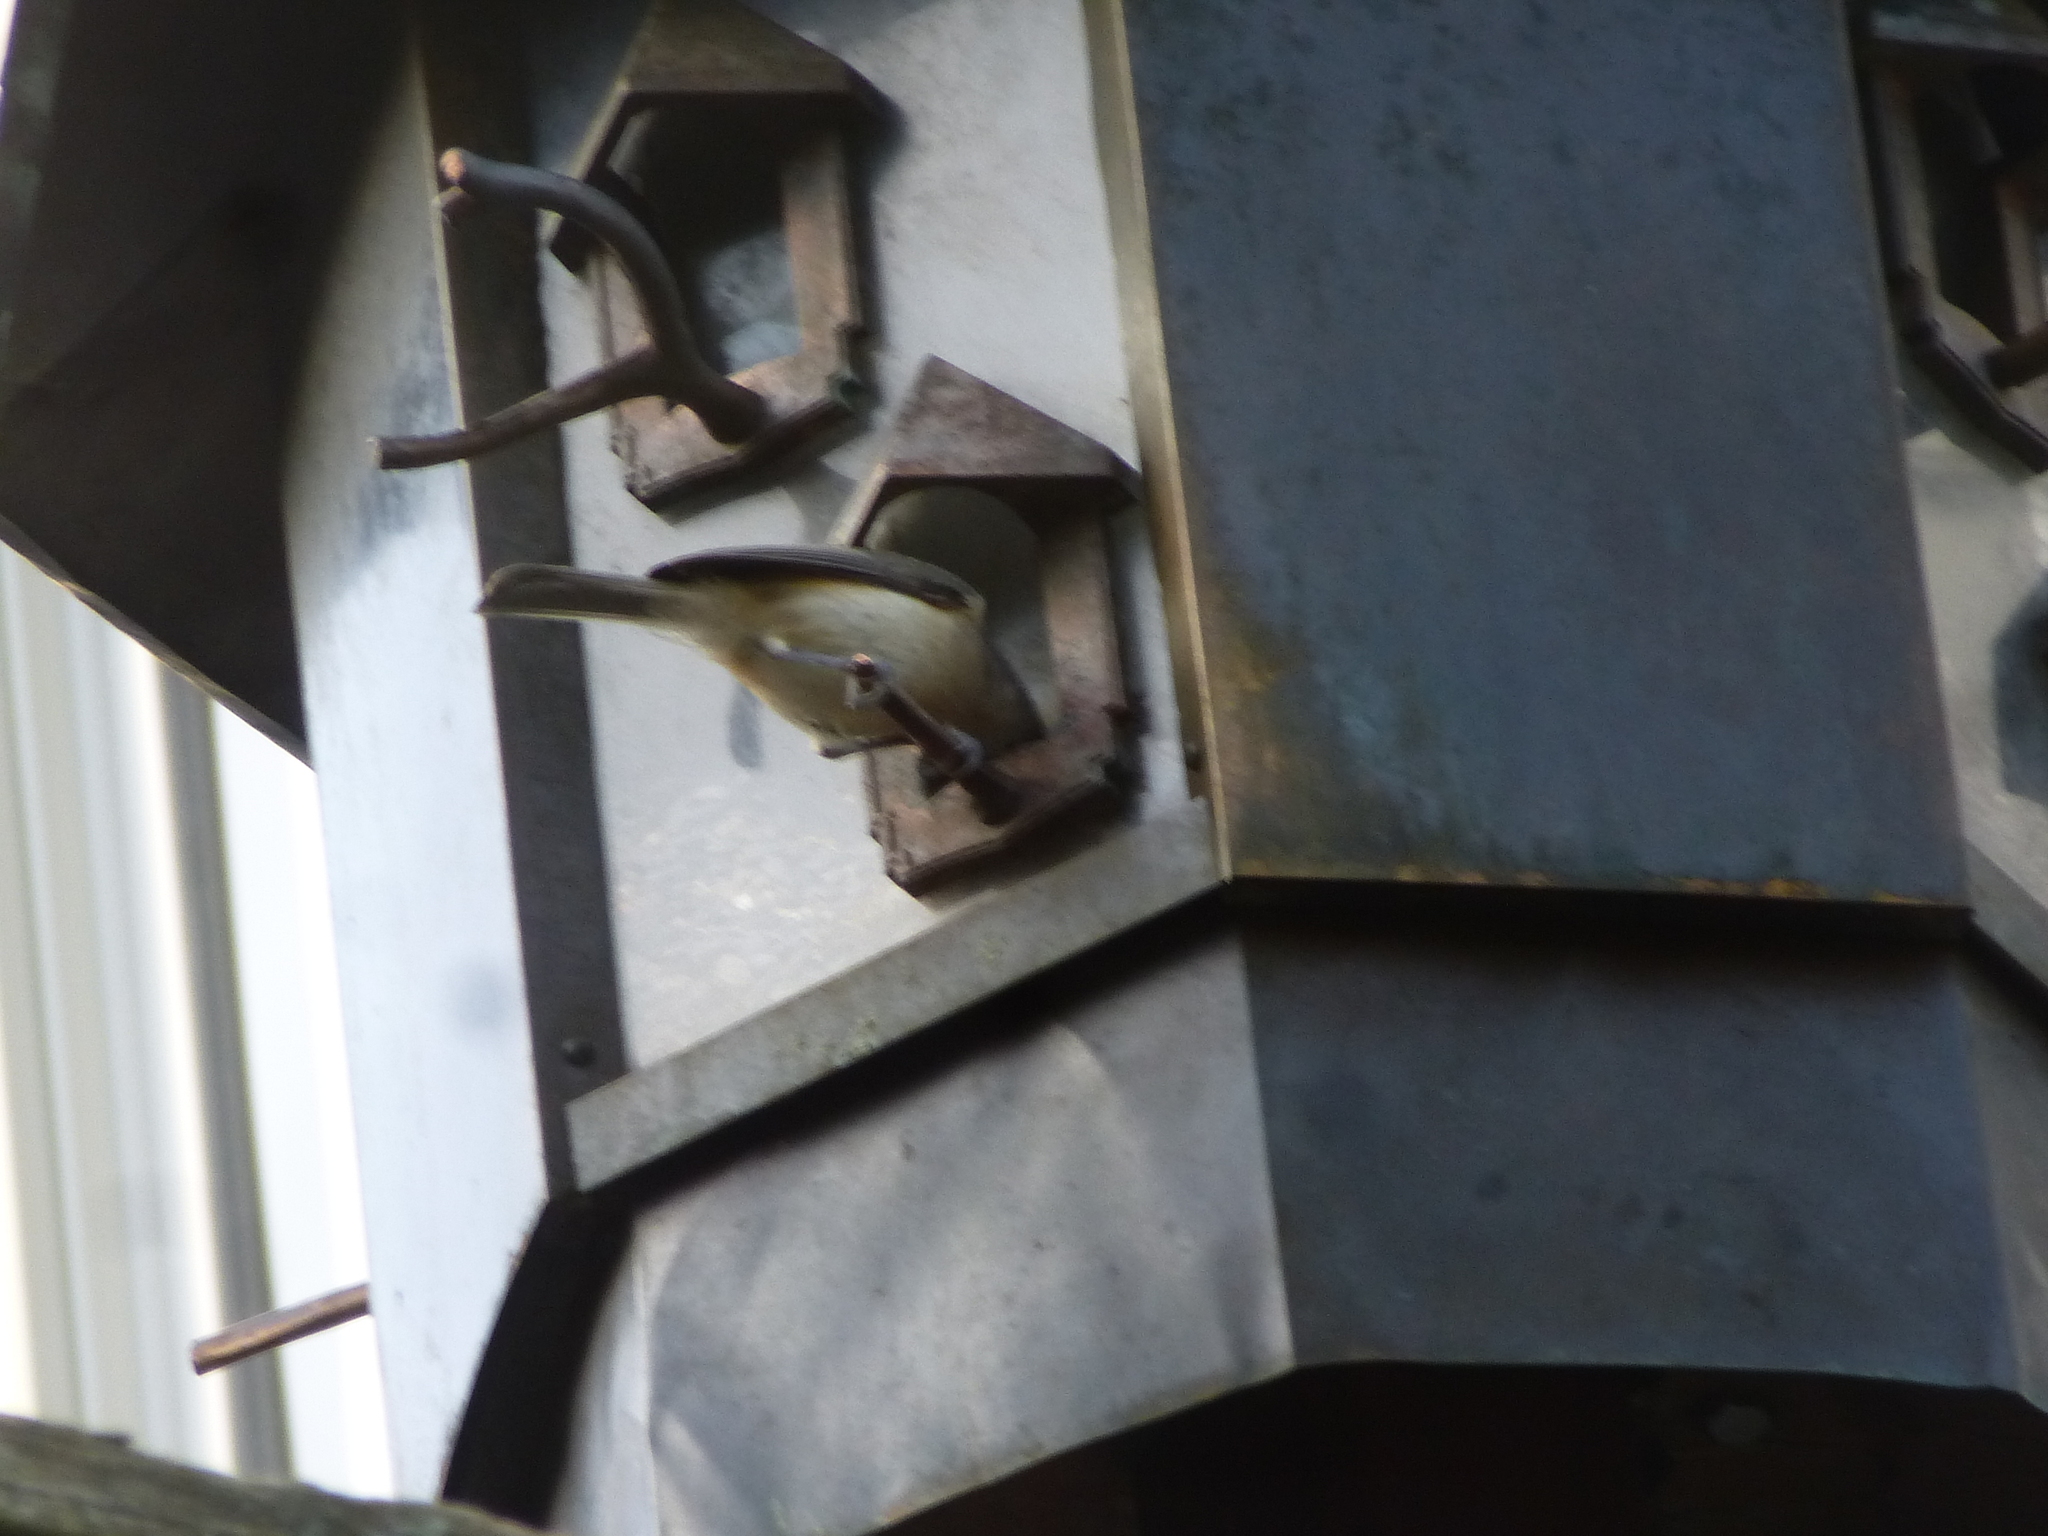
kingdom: Animalia
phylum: Chordata
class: Aves
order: Passeriformes
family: Paridae
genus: Baeolophus
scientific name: Baeolophus bicolor
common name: Tufted titmouse
